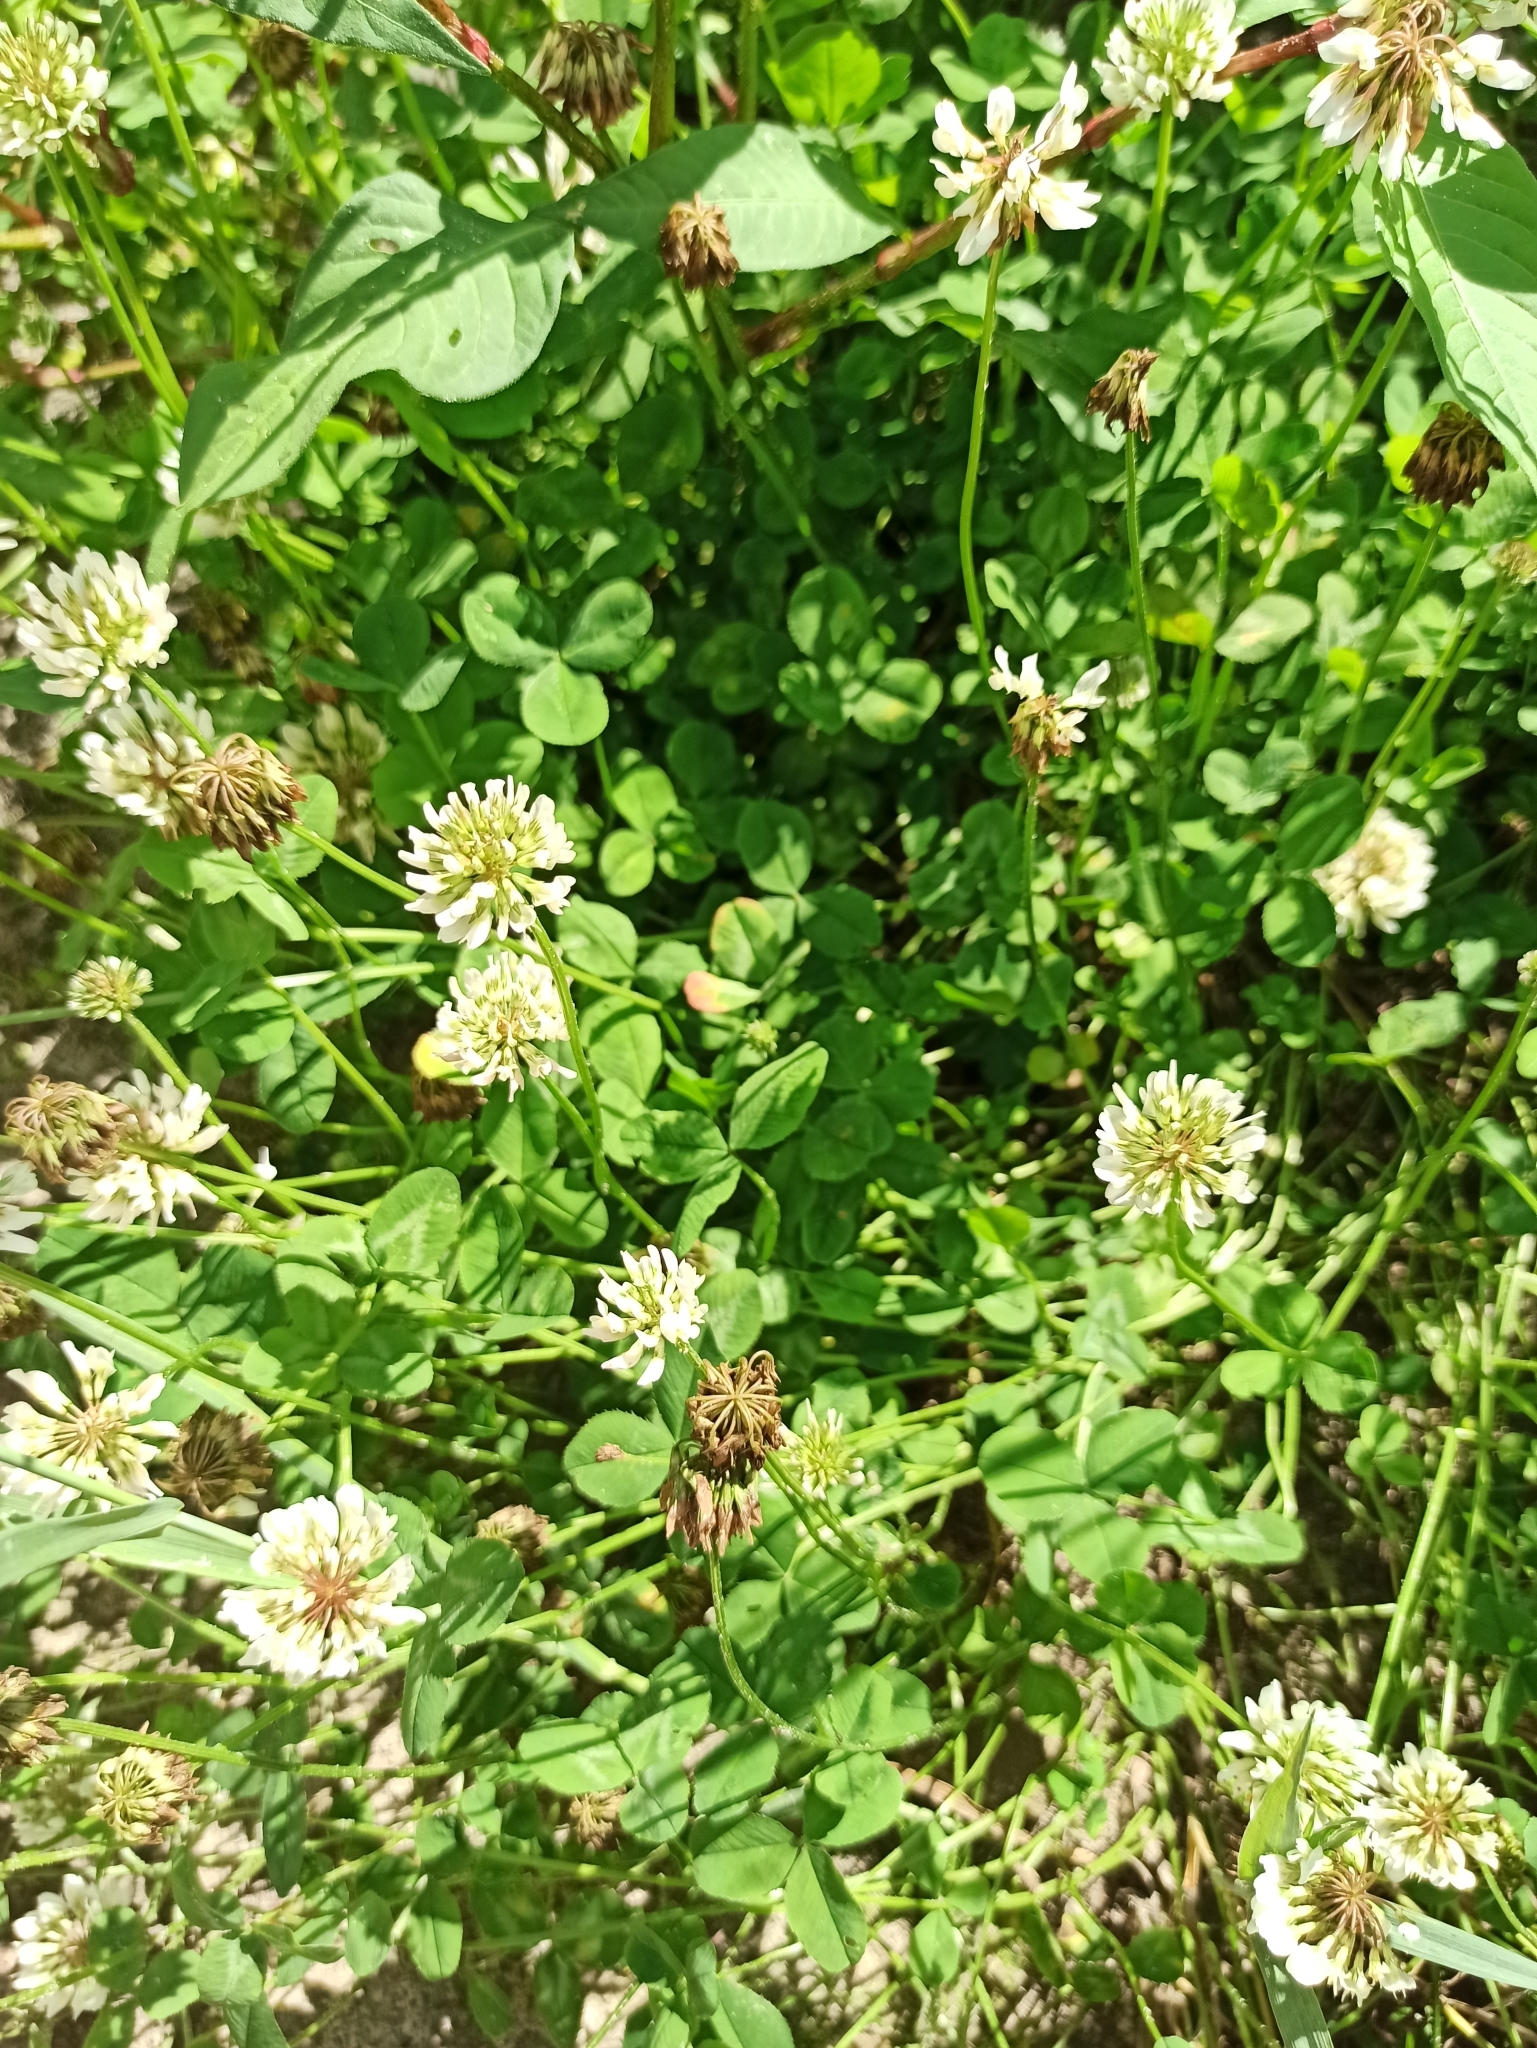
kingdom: Plantae
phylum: Tracheophyta
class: Magnoliopsida
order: Fabales
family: Fabaceae
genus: Trifolium
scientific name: Trifolium repens
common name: White clover
